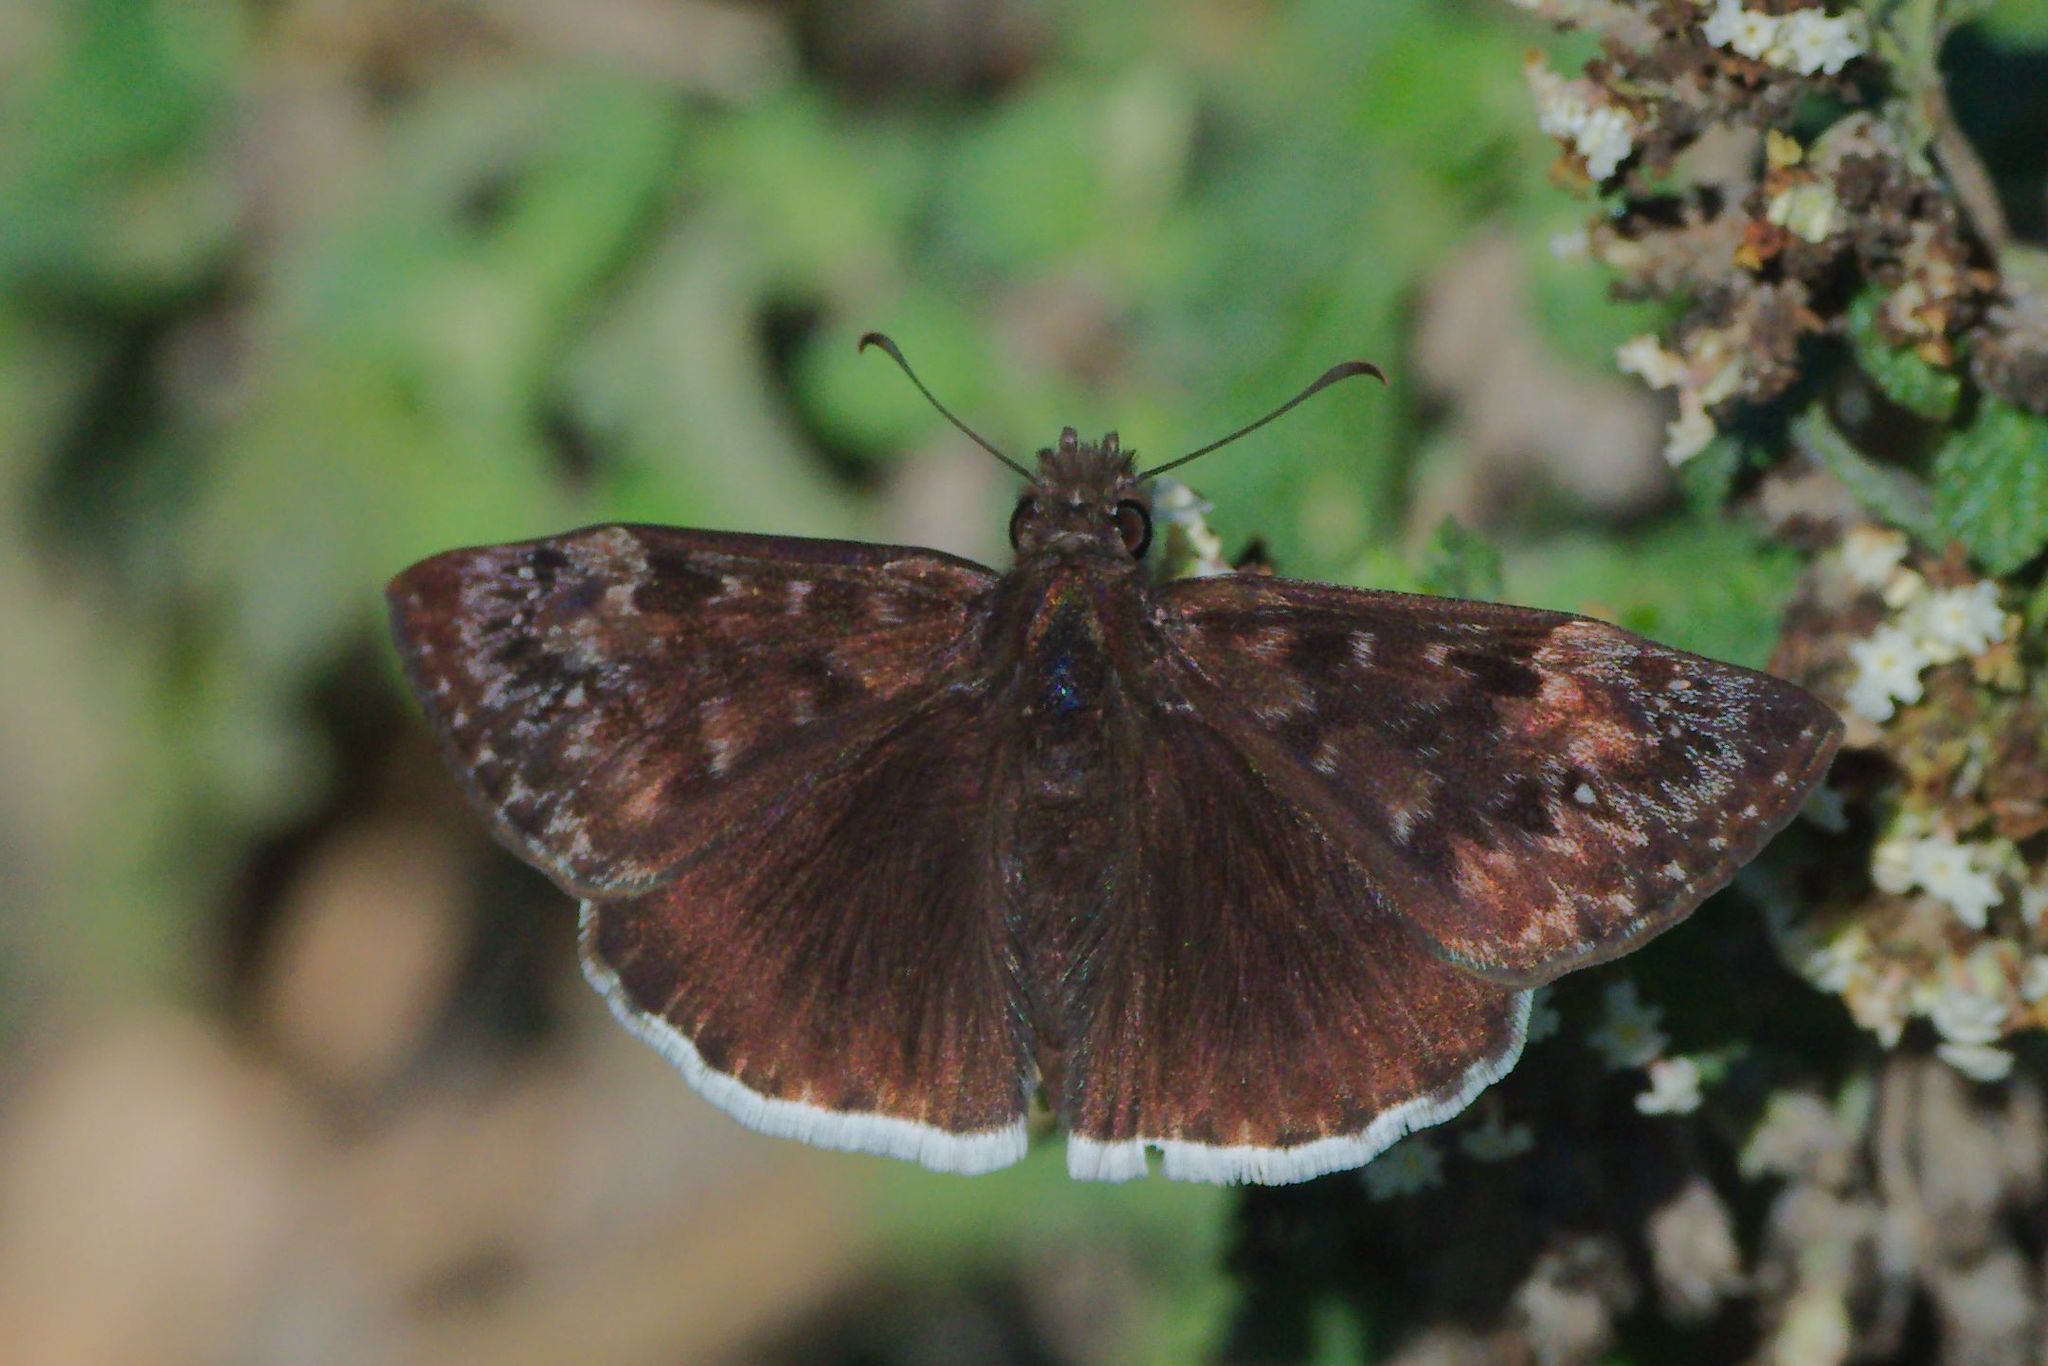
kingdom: Animalia
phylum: Arthropoda
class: Insecta
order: Lepidoptera
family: Hesperiidae
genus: Erynnis
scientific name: Erynnis tristis
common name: Mournful duskywing
